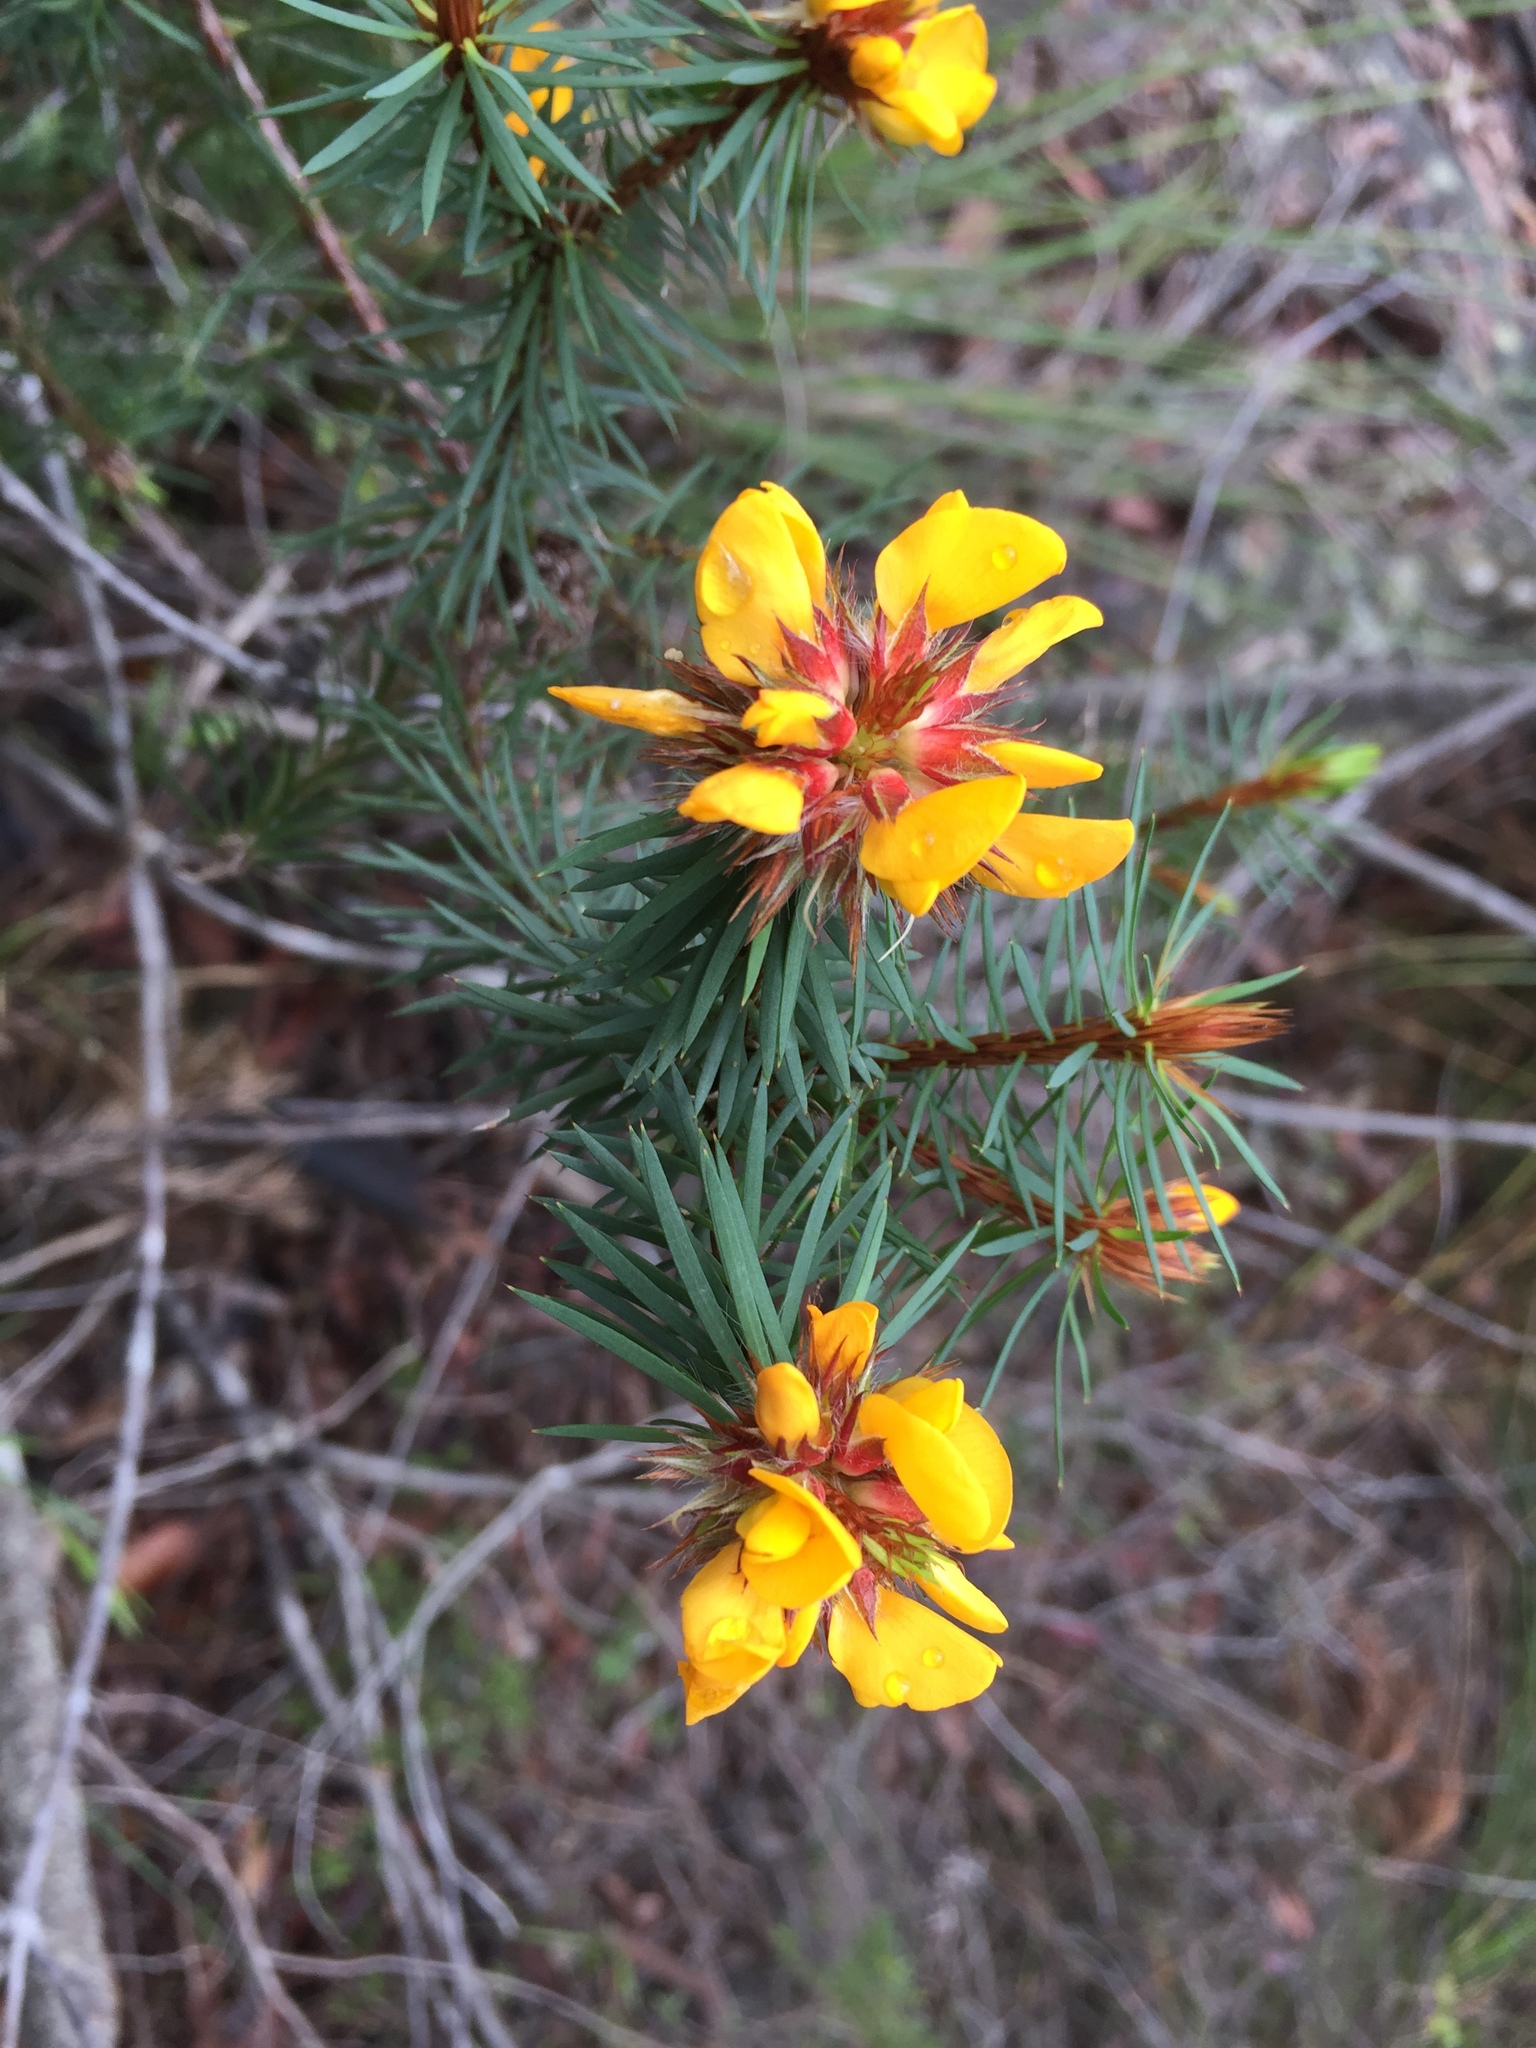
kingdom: Plantae
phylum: Tracheophyta
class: Magnoliopsida
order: Fabales
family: Fabaceae
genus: Pultenaea
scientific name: Pultenaea stipularis
